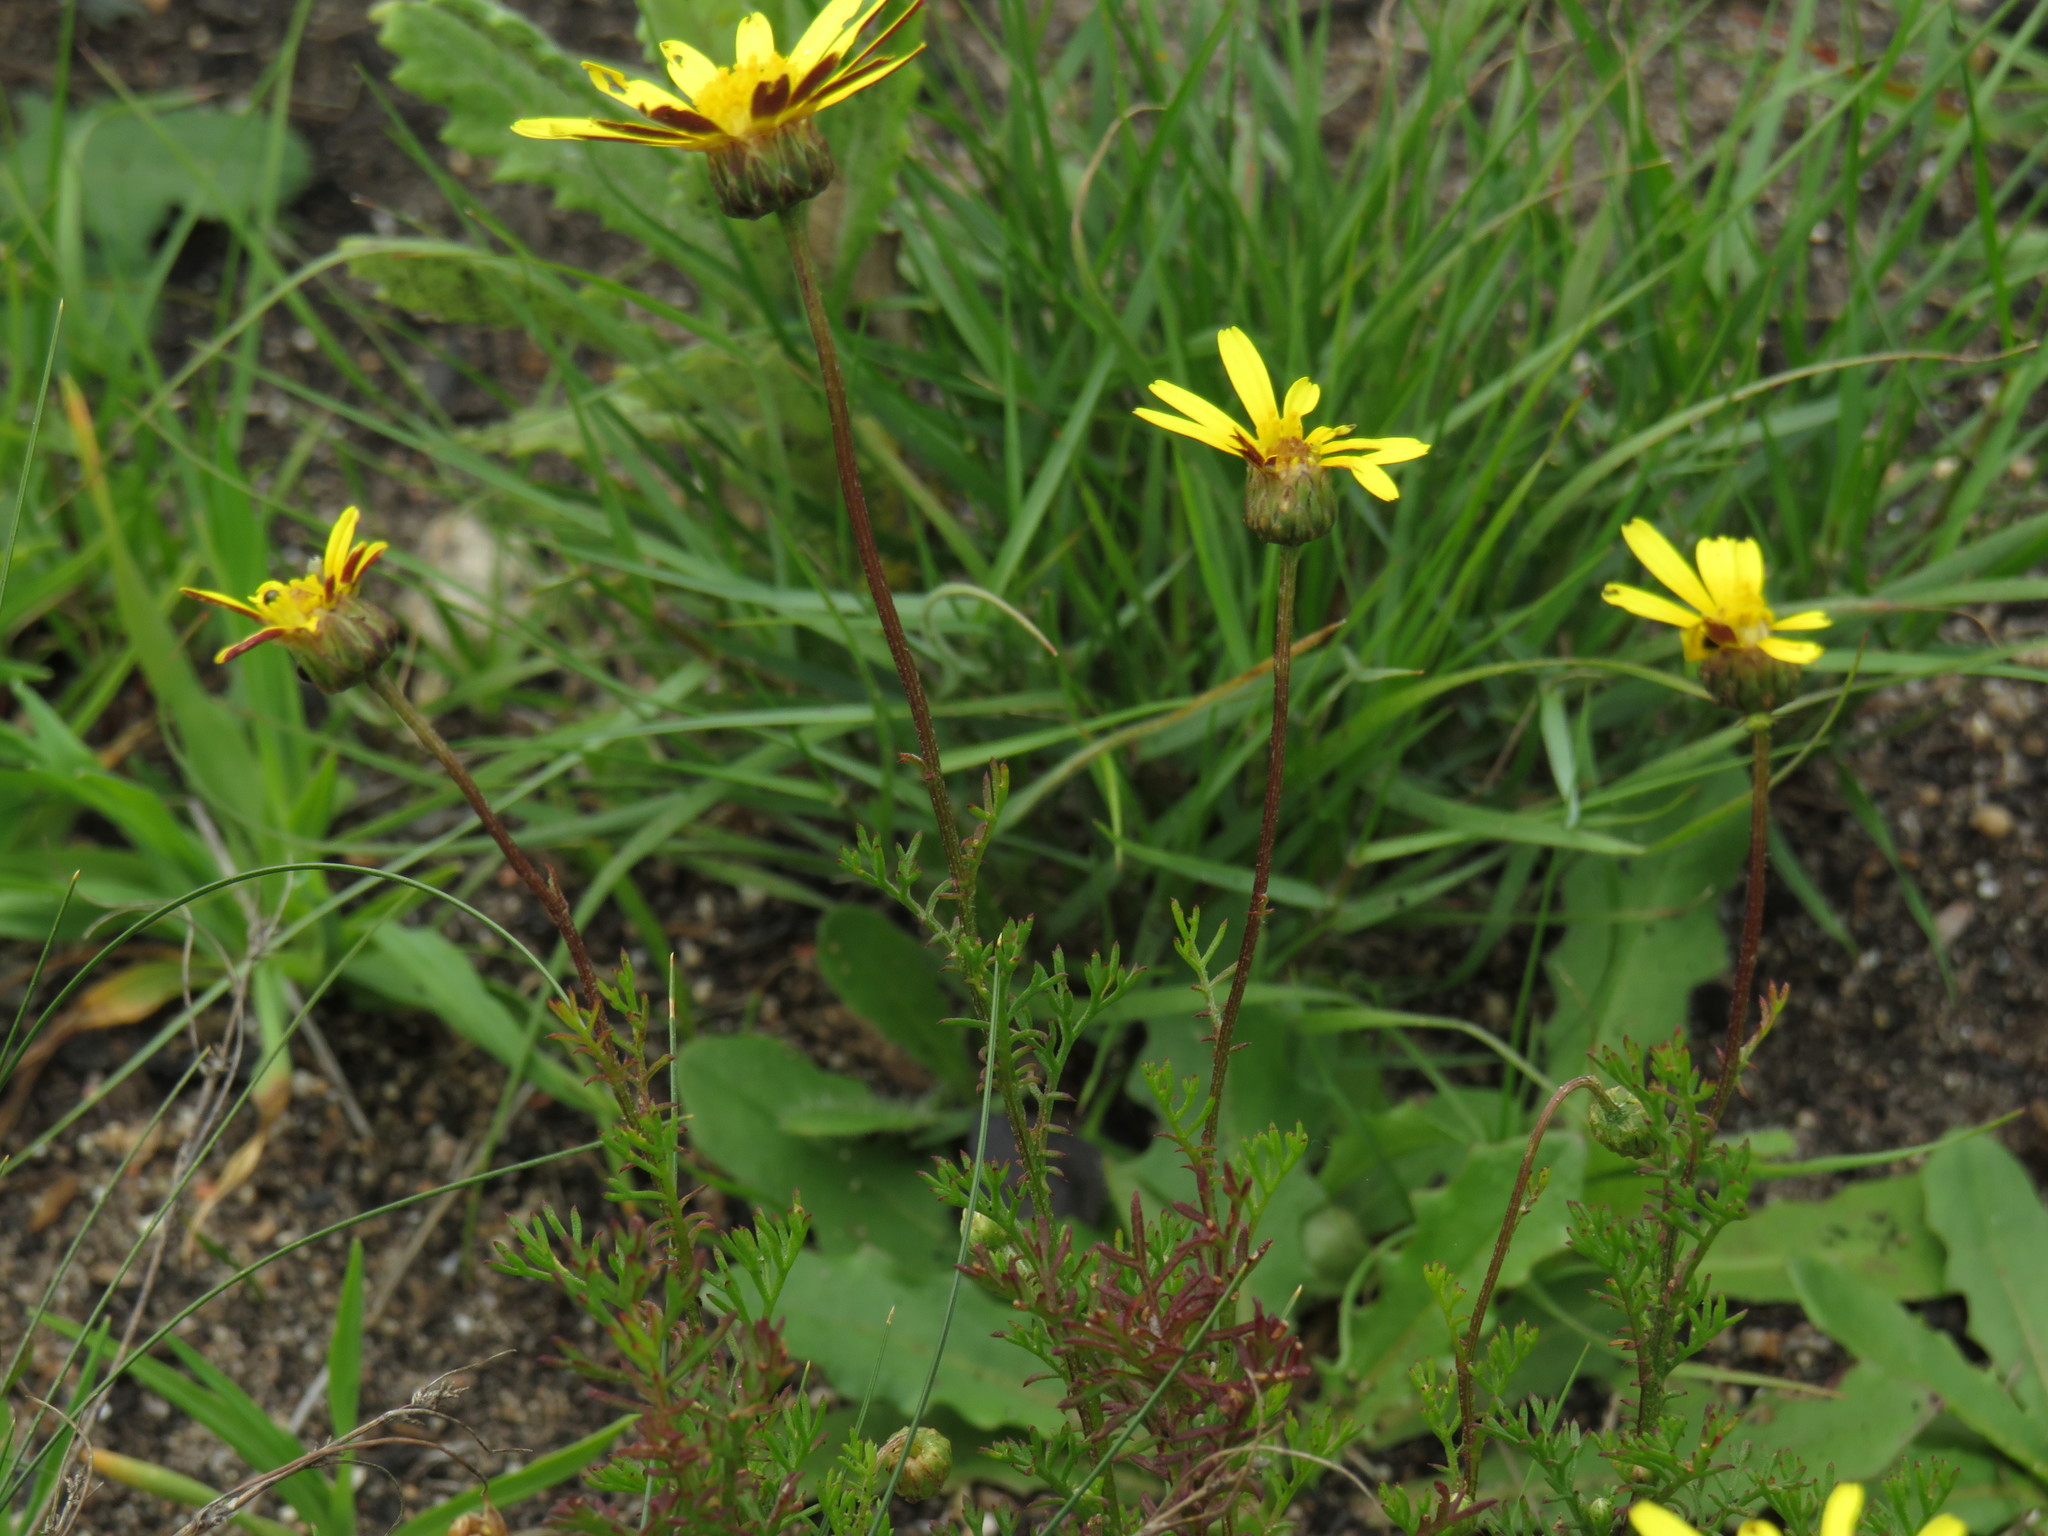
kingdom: Plantae
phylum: Tracheophyta
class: Magnoliopsida
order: Asterales
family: Asteraceae
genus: Ursinia
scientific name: Ursinia anthemoides
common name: Ursinia
